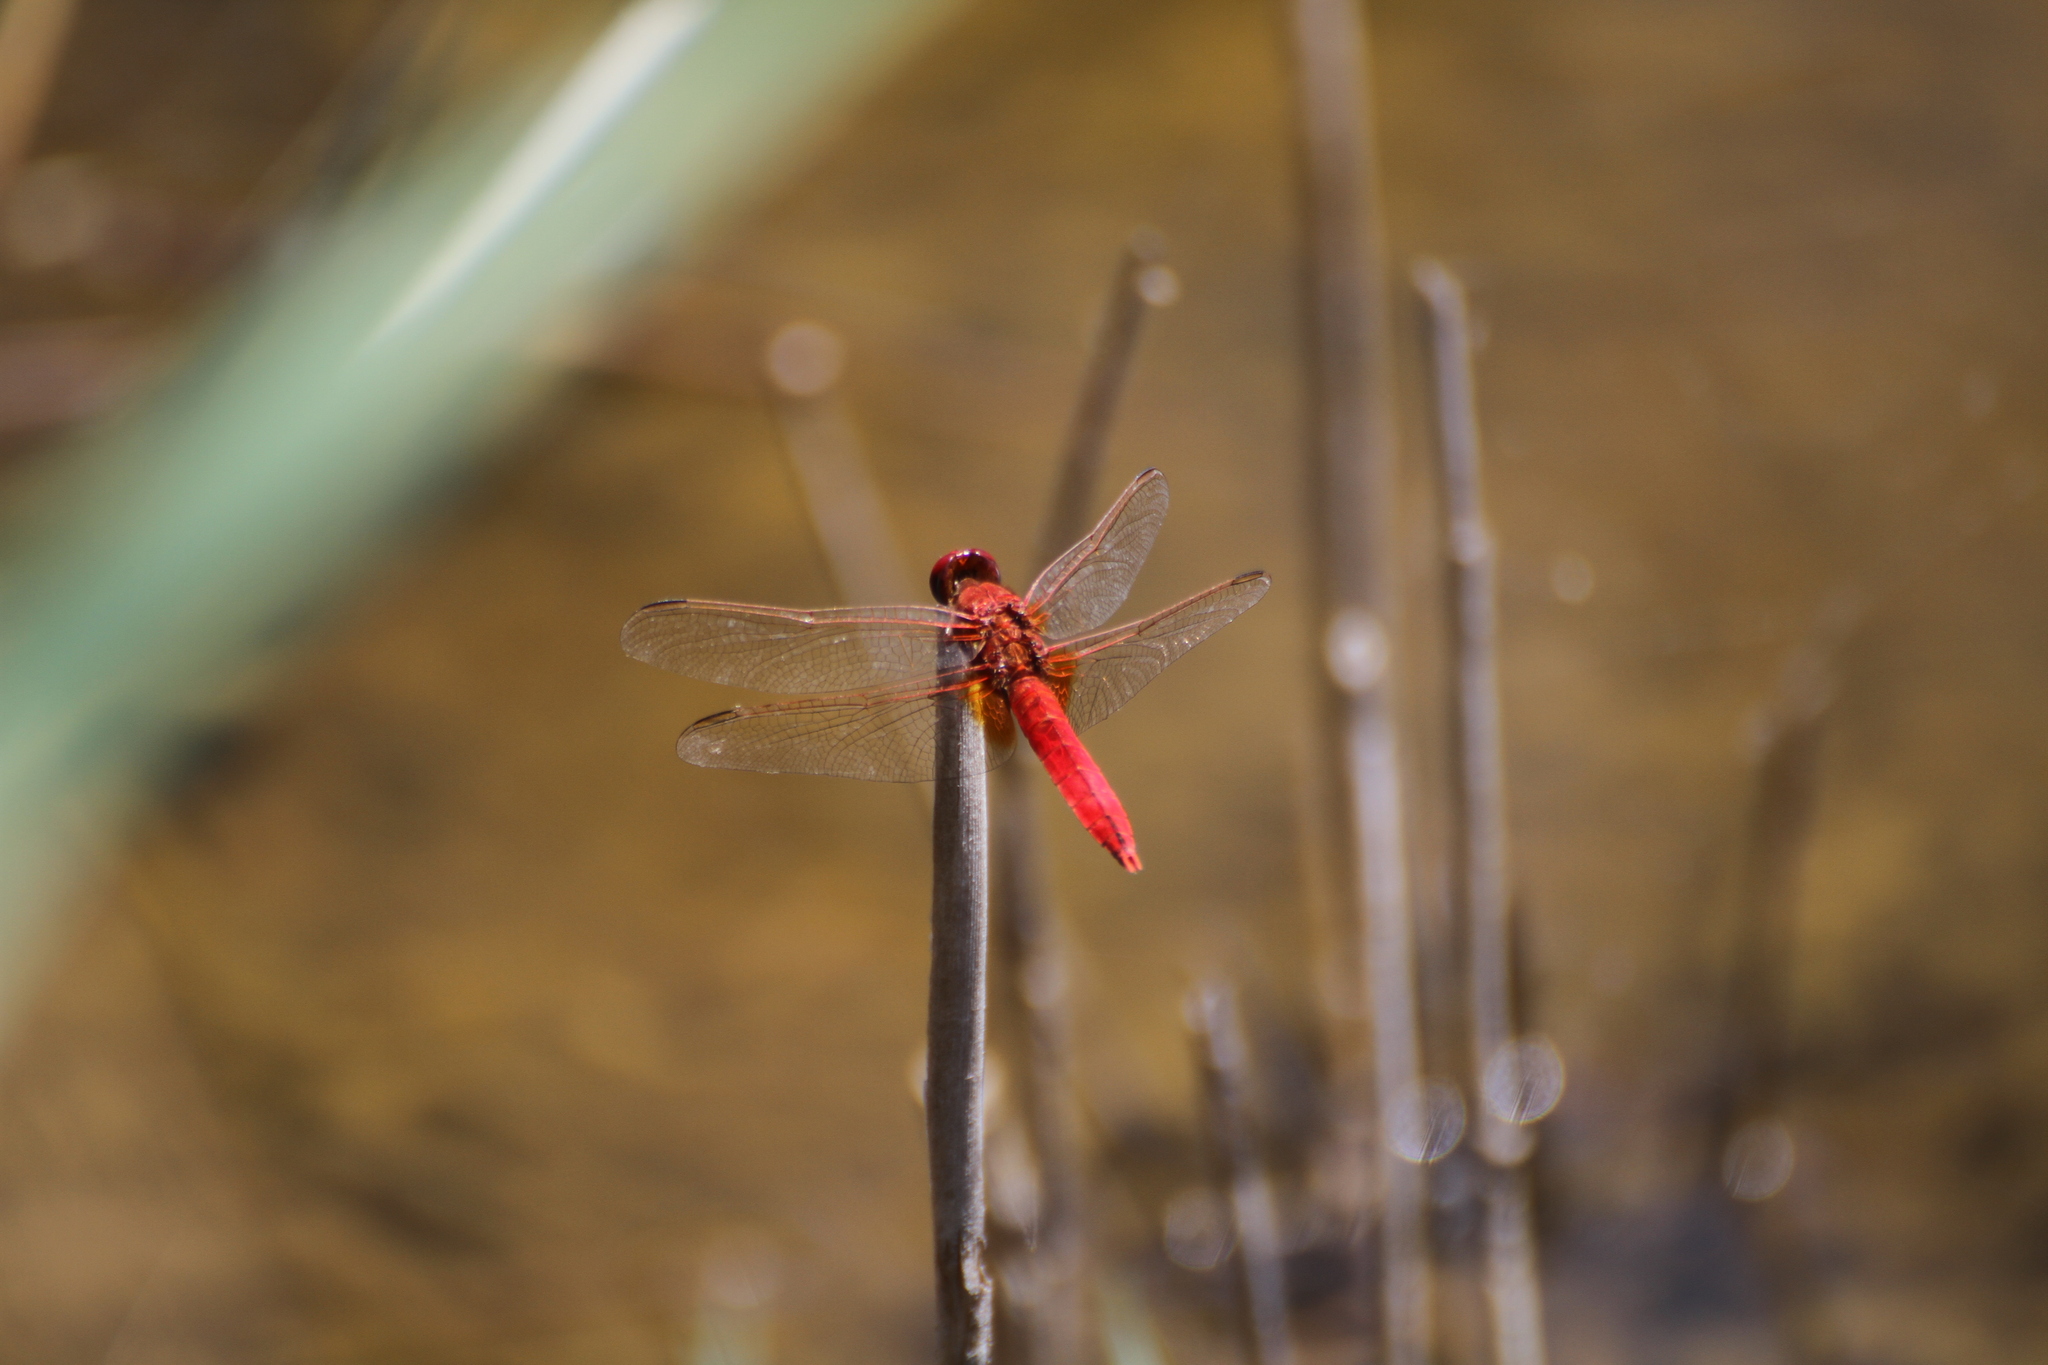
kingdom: Animalia
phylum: Arthropoda
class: Insecta
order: Odonata
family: Libellulidae
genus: Crocothemis
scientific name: Crocothemis erythraea
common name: Scarlet dragonfly
